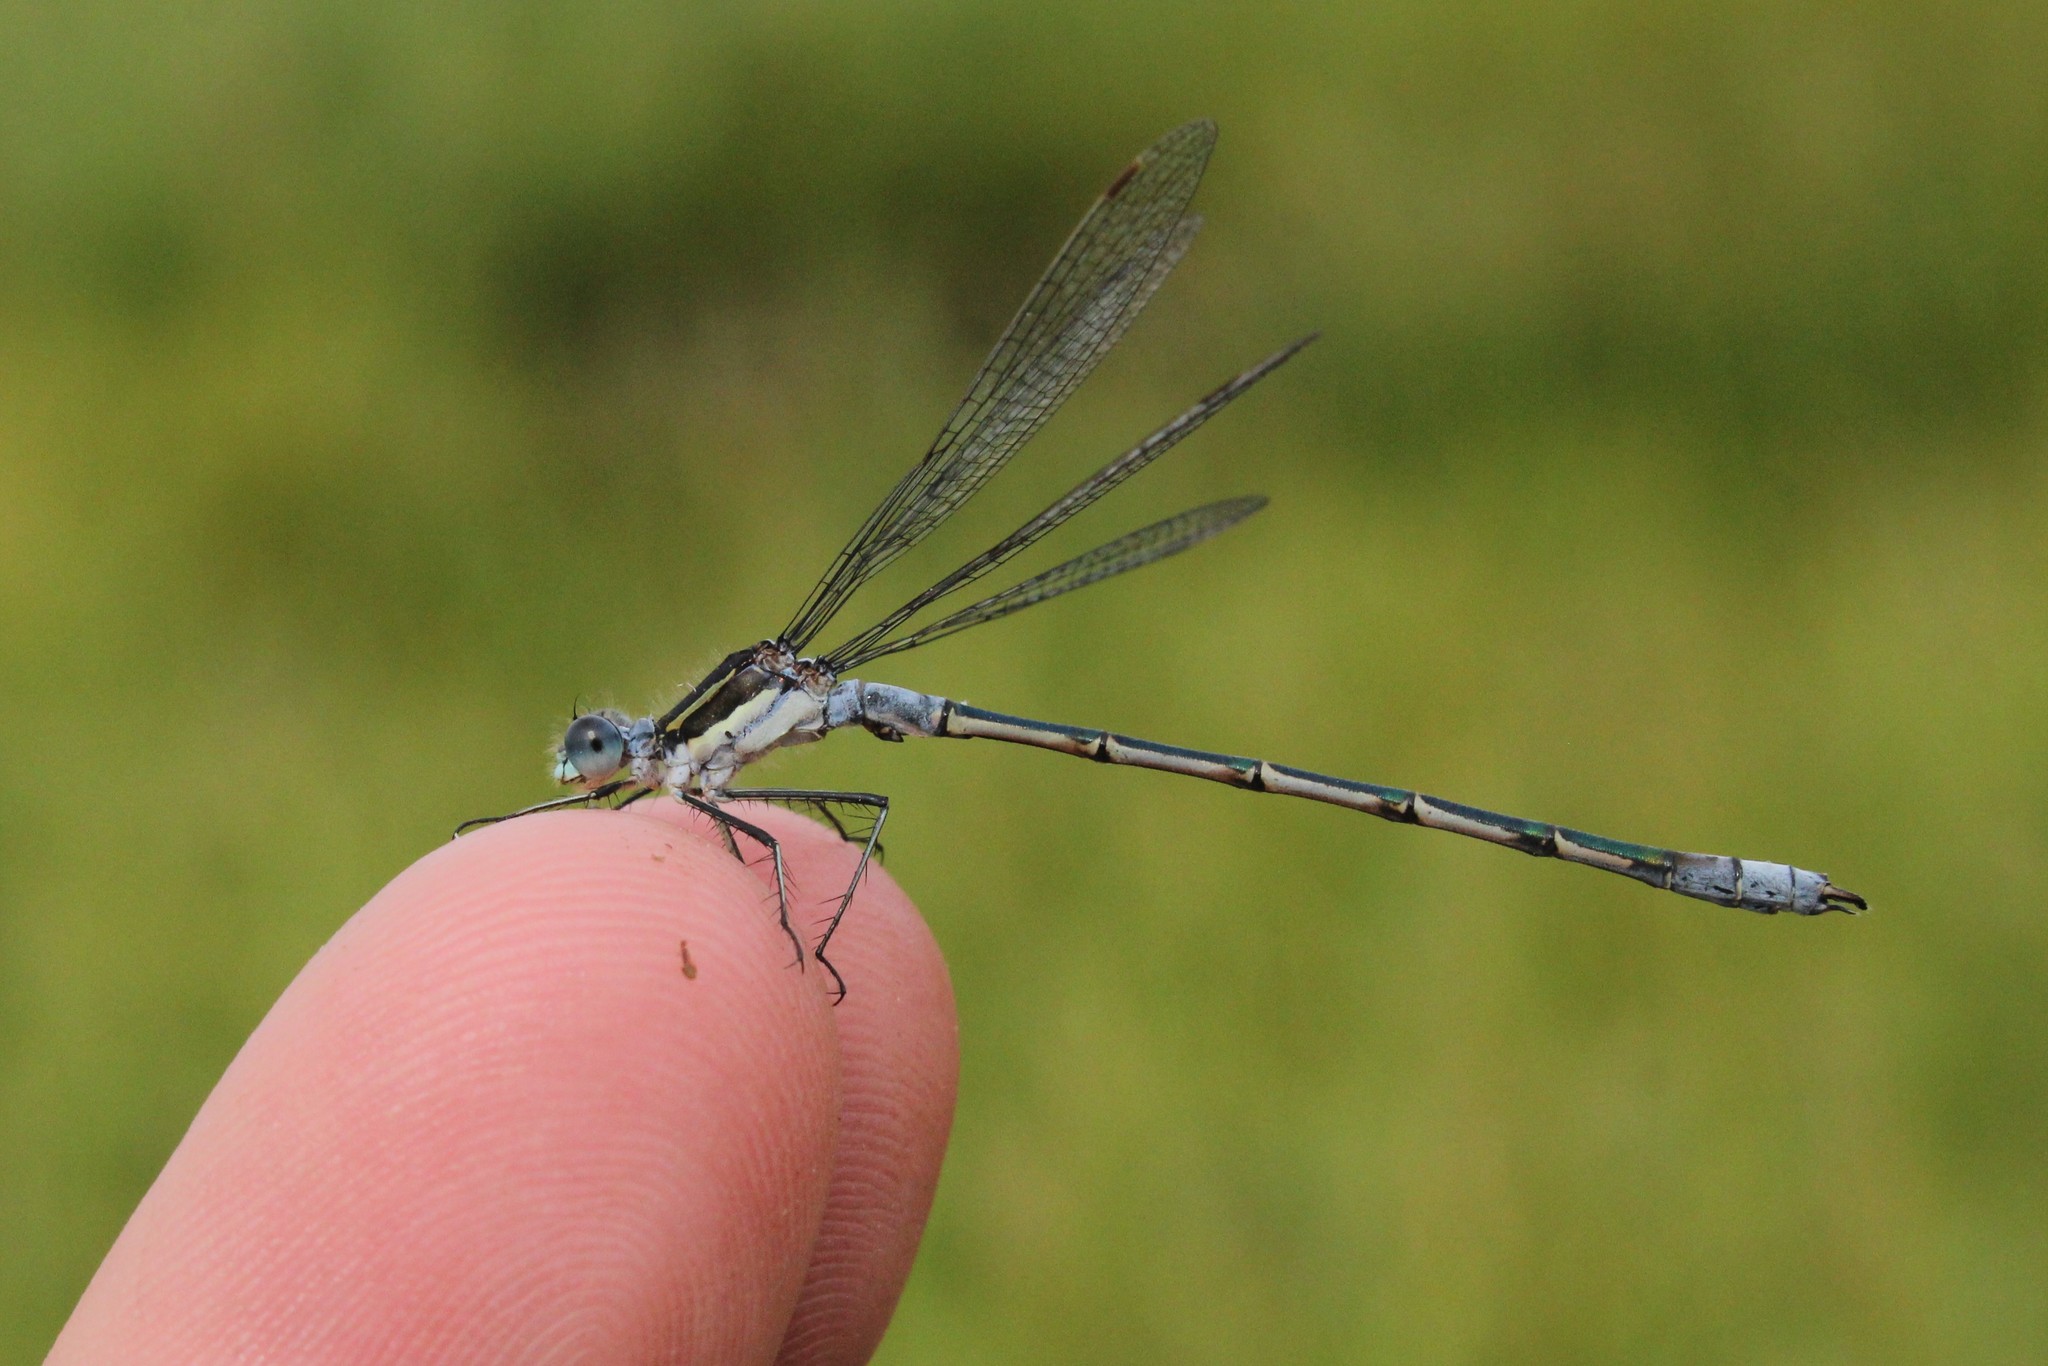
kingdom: Animalia
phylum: Arthropoda
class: Insecta
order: Odonata
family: Lestidae
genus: Lestes
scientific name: Lestes disjunctus
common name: Northern spreadwing
